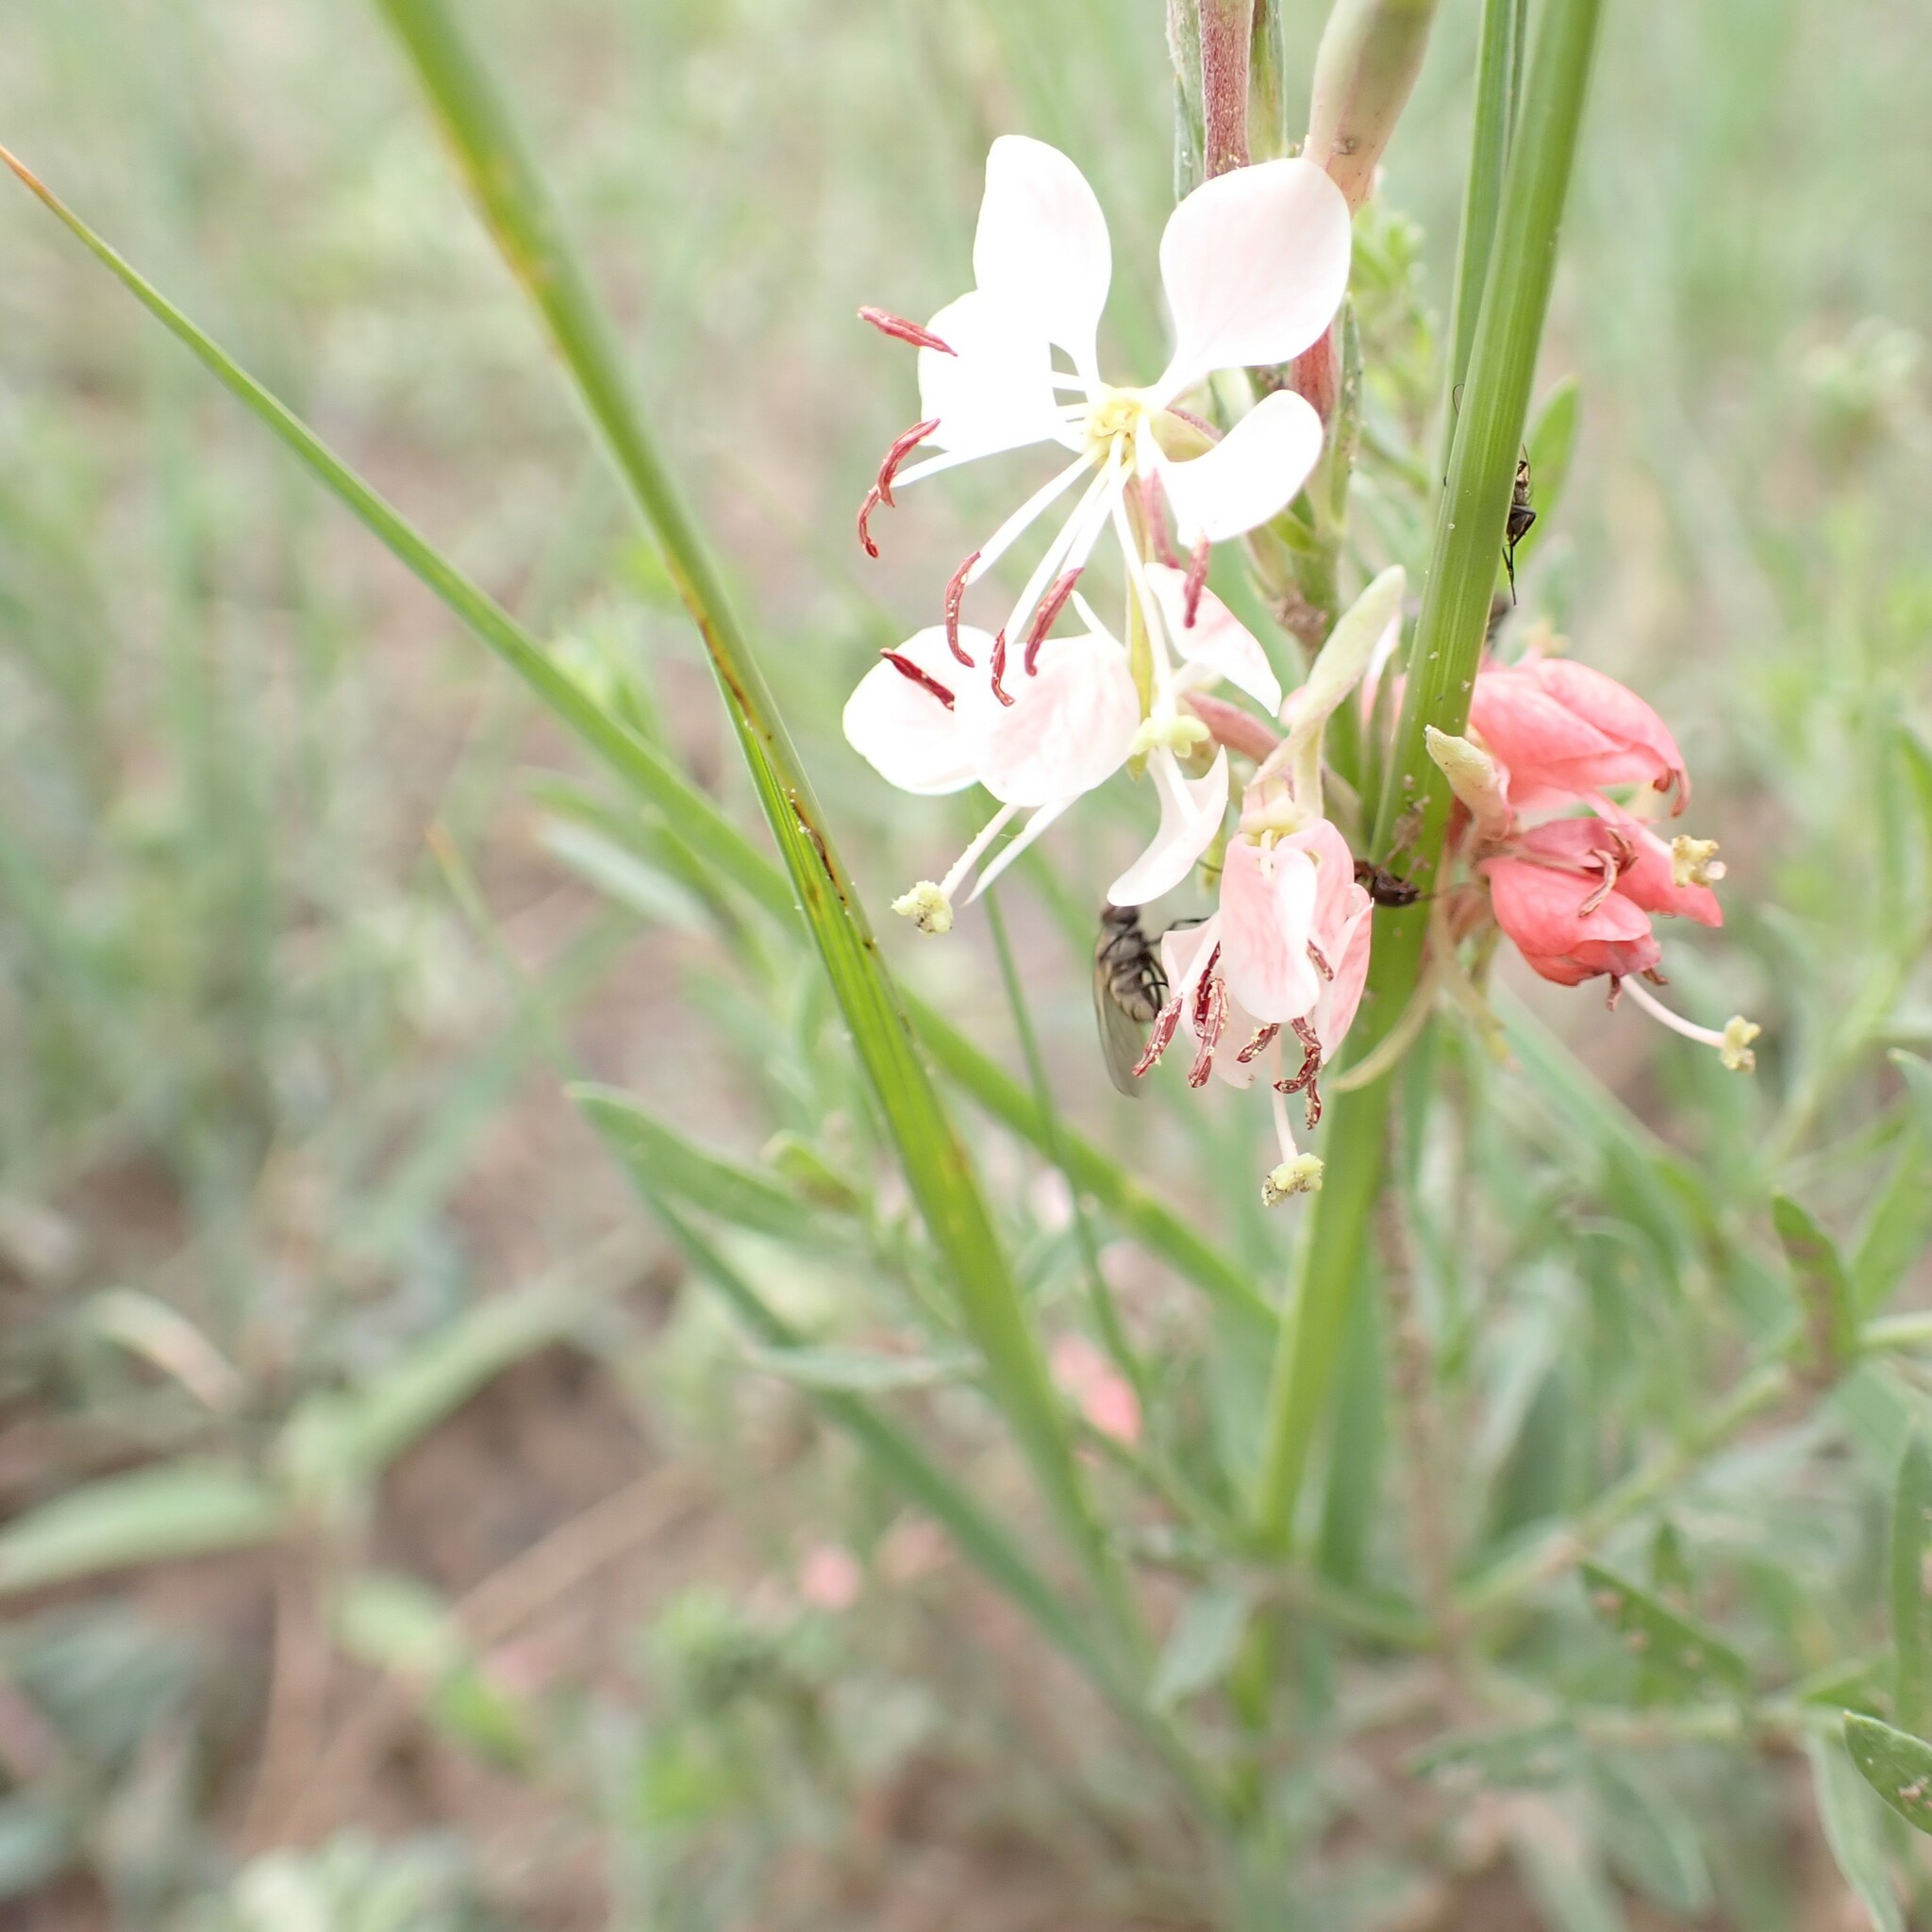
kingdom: Plantae
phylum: Tracheophyta
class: Magnoliopsida
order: Myrtales
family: Onagraceae
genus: Oenothera
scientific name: Oenothera suffrutescens
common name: Scarlet beeblossom
